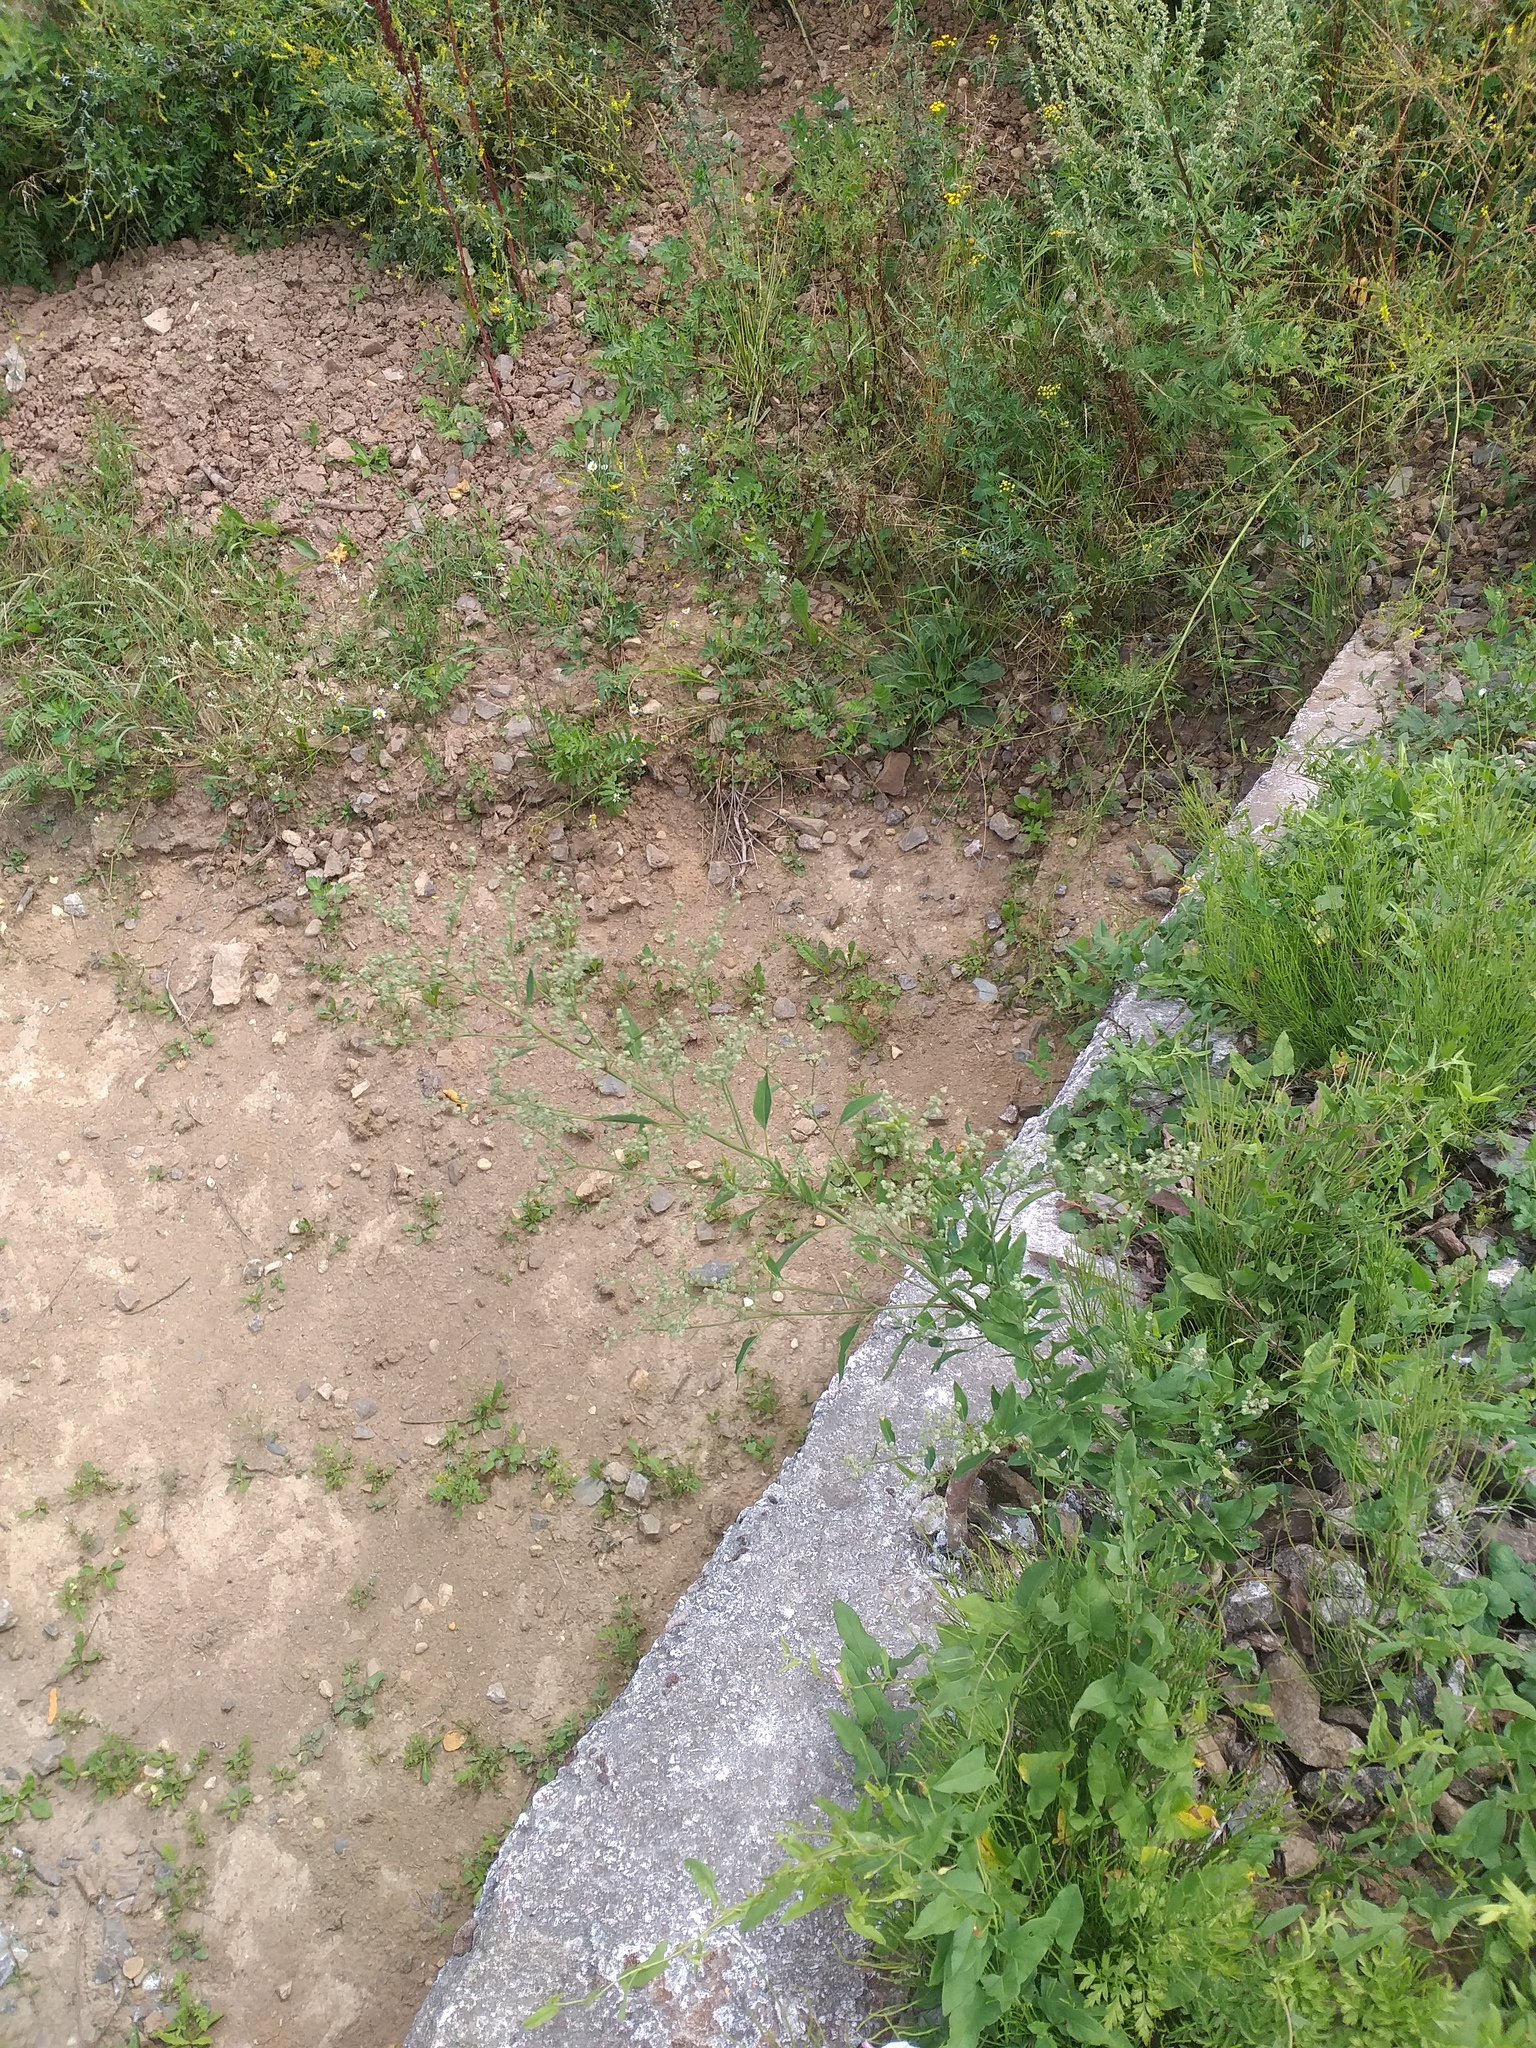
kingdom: Plantae
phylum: Tracheophyta
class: Magnoliopsida
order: Caryophyllales
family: Amaranthaceae
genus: Chenopodium
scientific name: Chenopodium album
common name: Fat-hen
